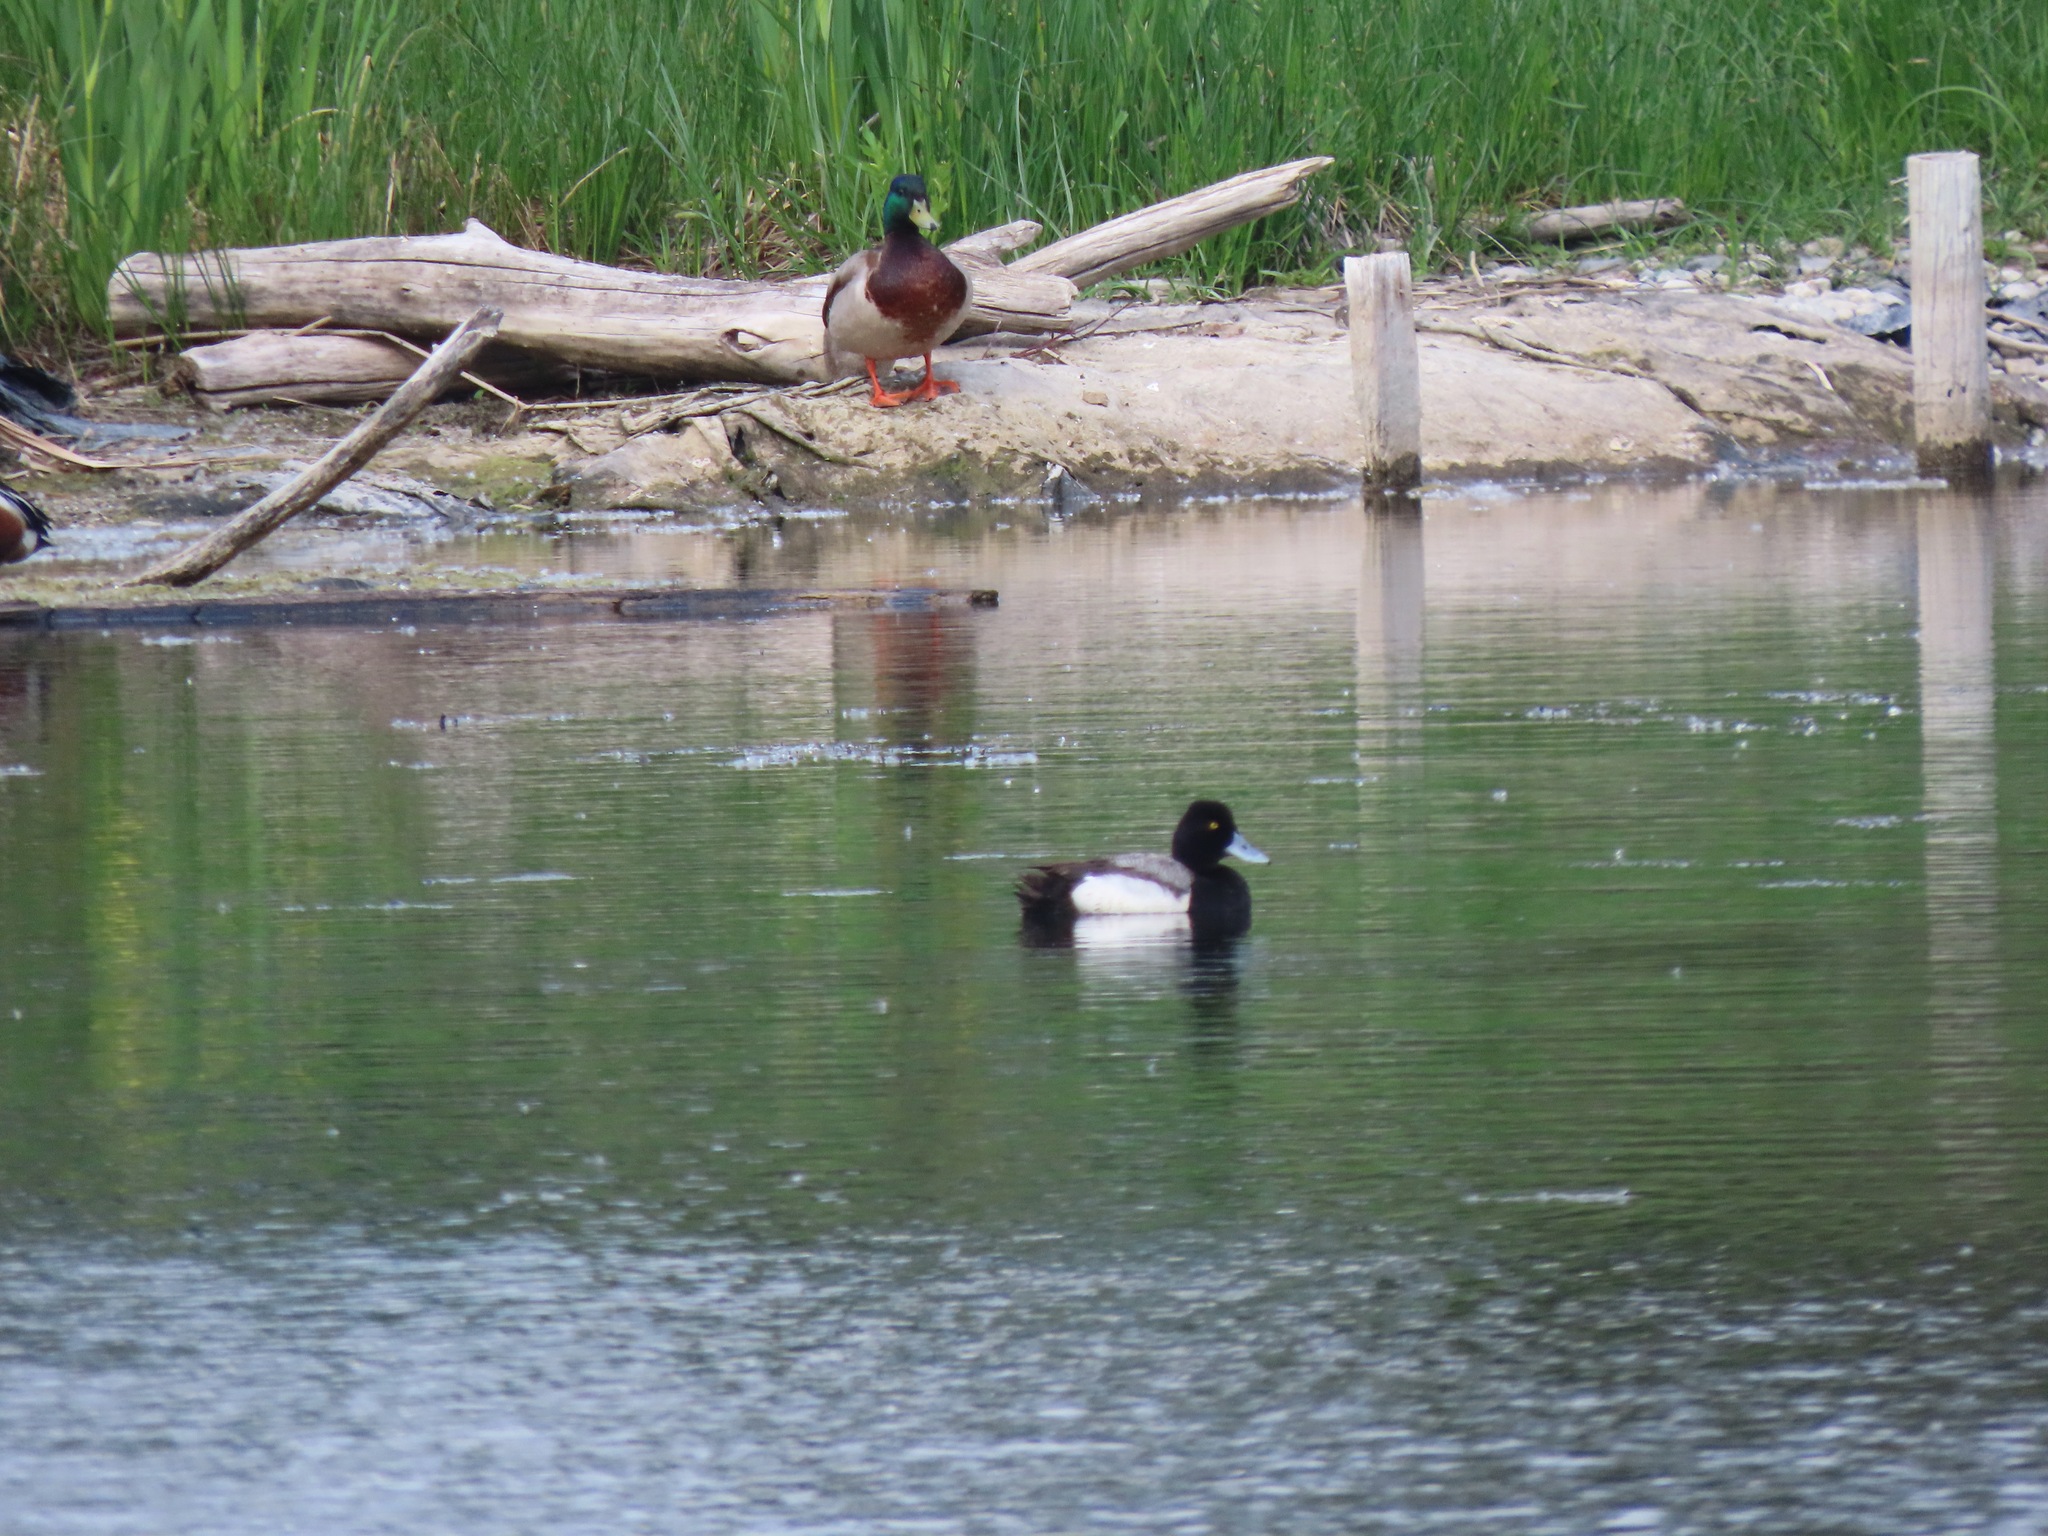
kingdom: Animalia
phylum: Chordata
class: Aves
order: Anseriformes
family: Anatidae
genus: Aythya
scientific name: Aythya affinis
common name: Lesser scaup
